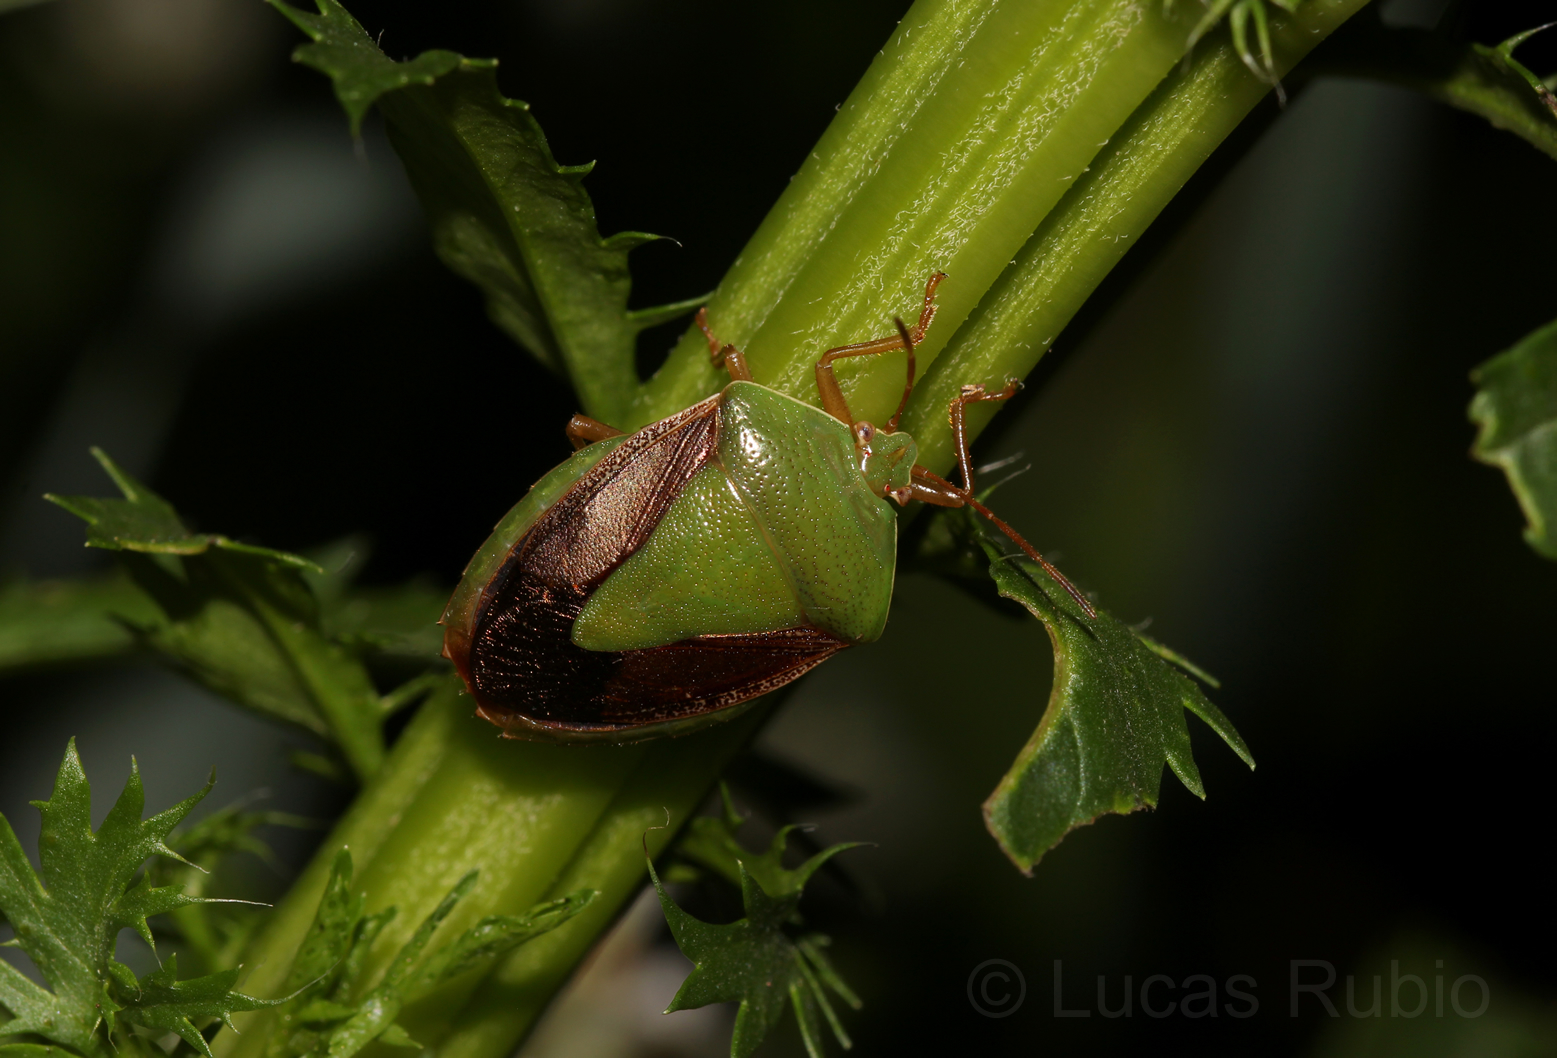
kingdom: Animalia
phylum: Arthropoda
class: Insecta
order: Hemiptera
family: Pentatomidae
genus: Edessa
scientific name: Edessa meditabunda
